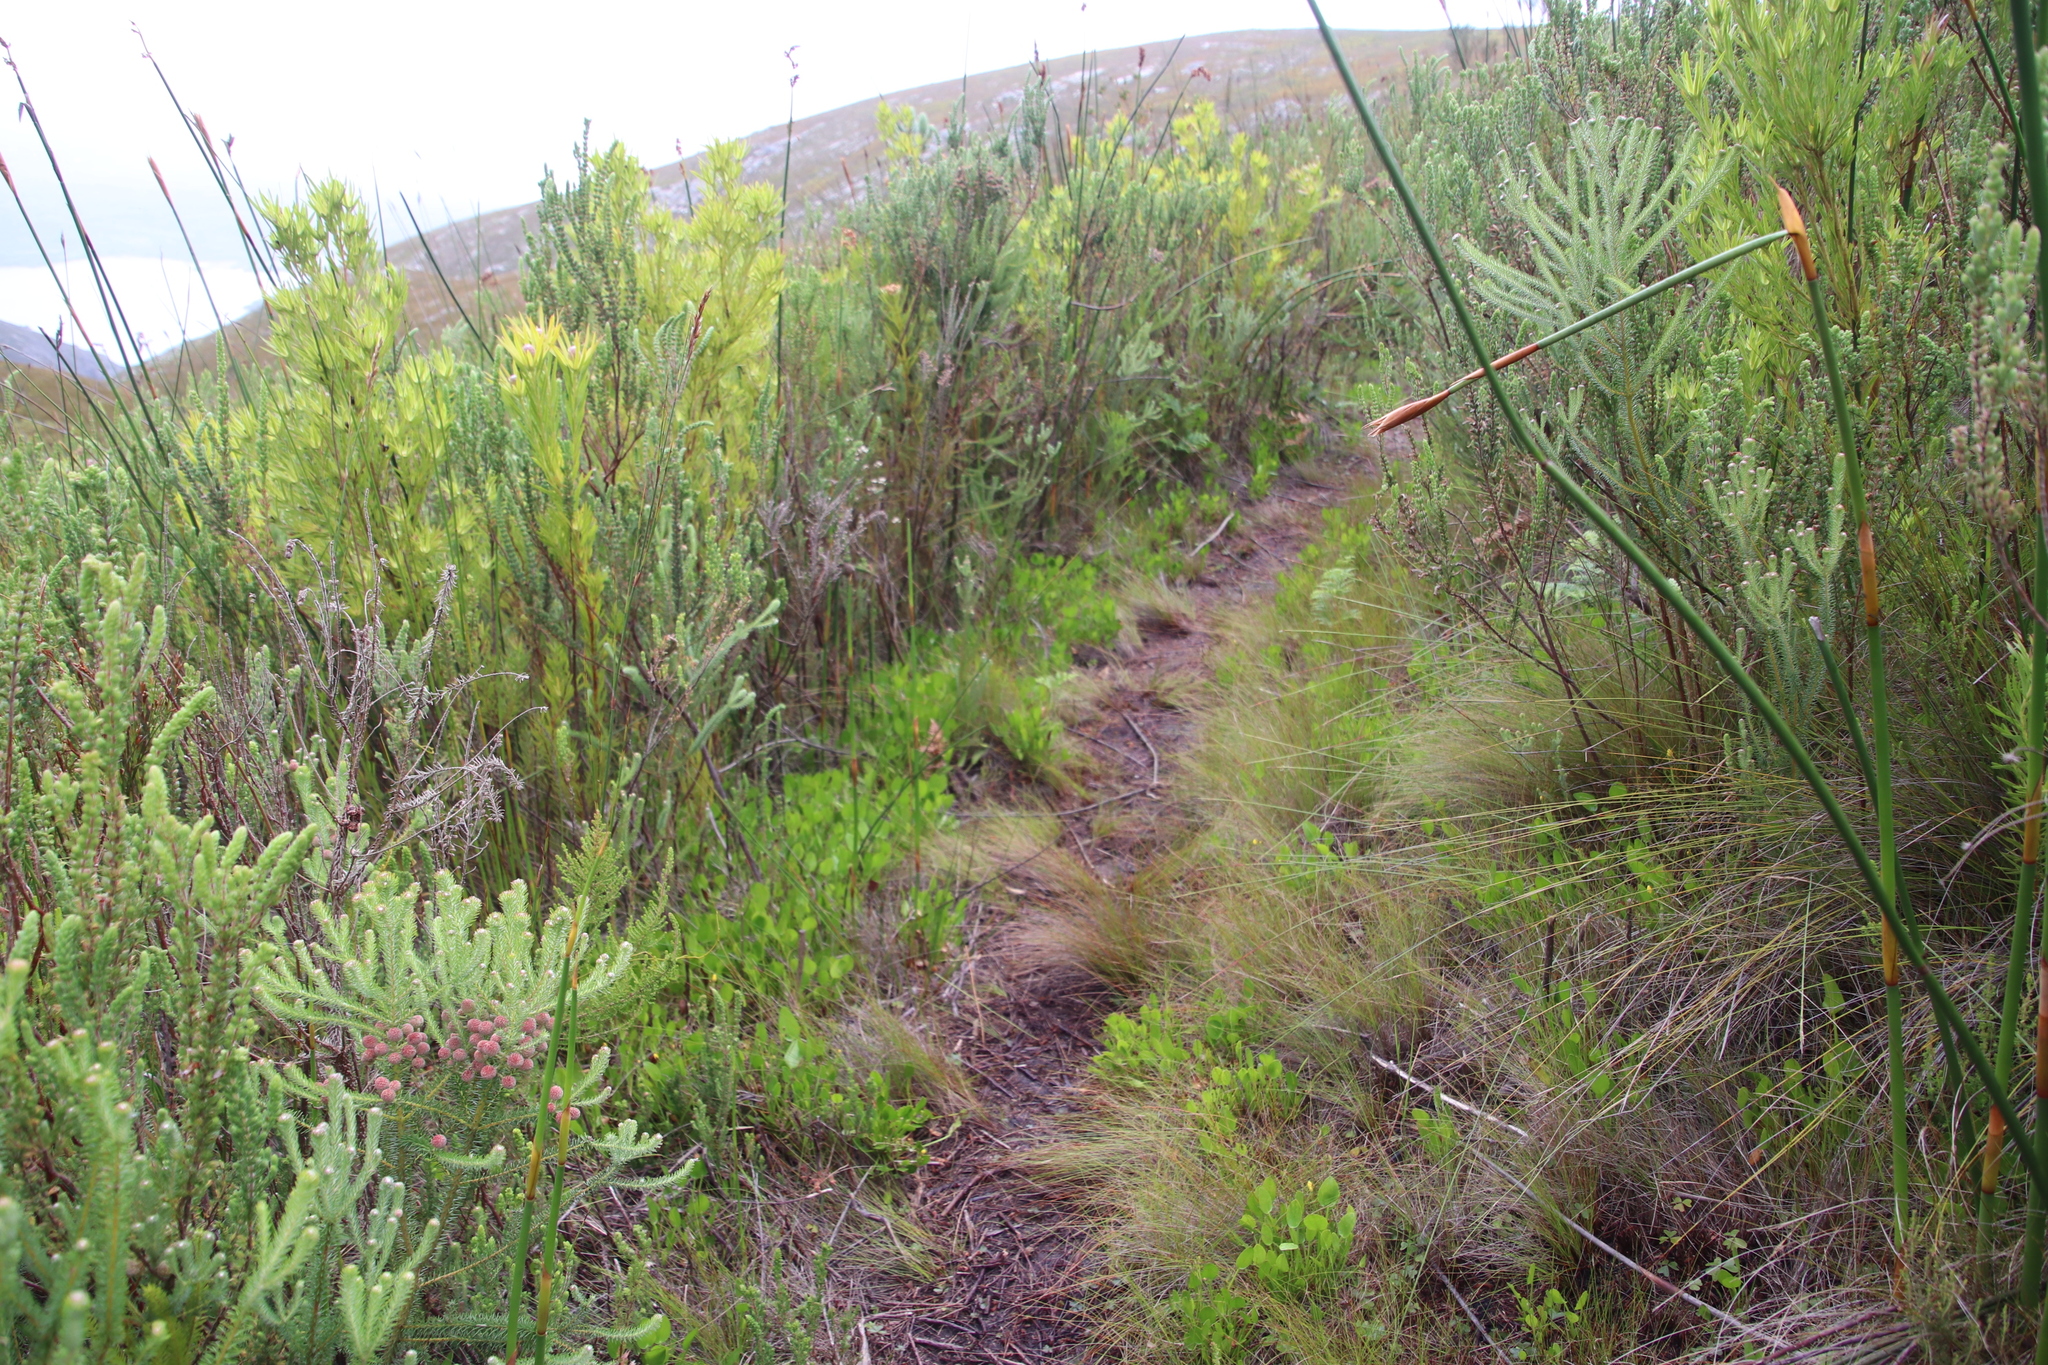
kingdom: Plantae
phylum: Tracheophyta
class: Magnoliopsida
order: Asterales
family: Menyanthaceae
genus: Villarsia
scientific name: Villarsia manningiana
